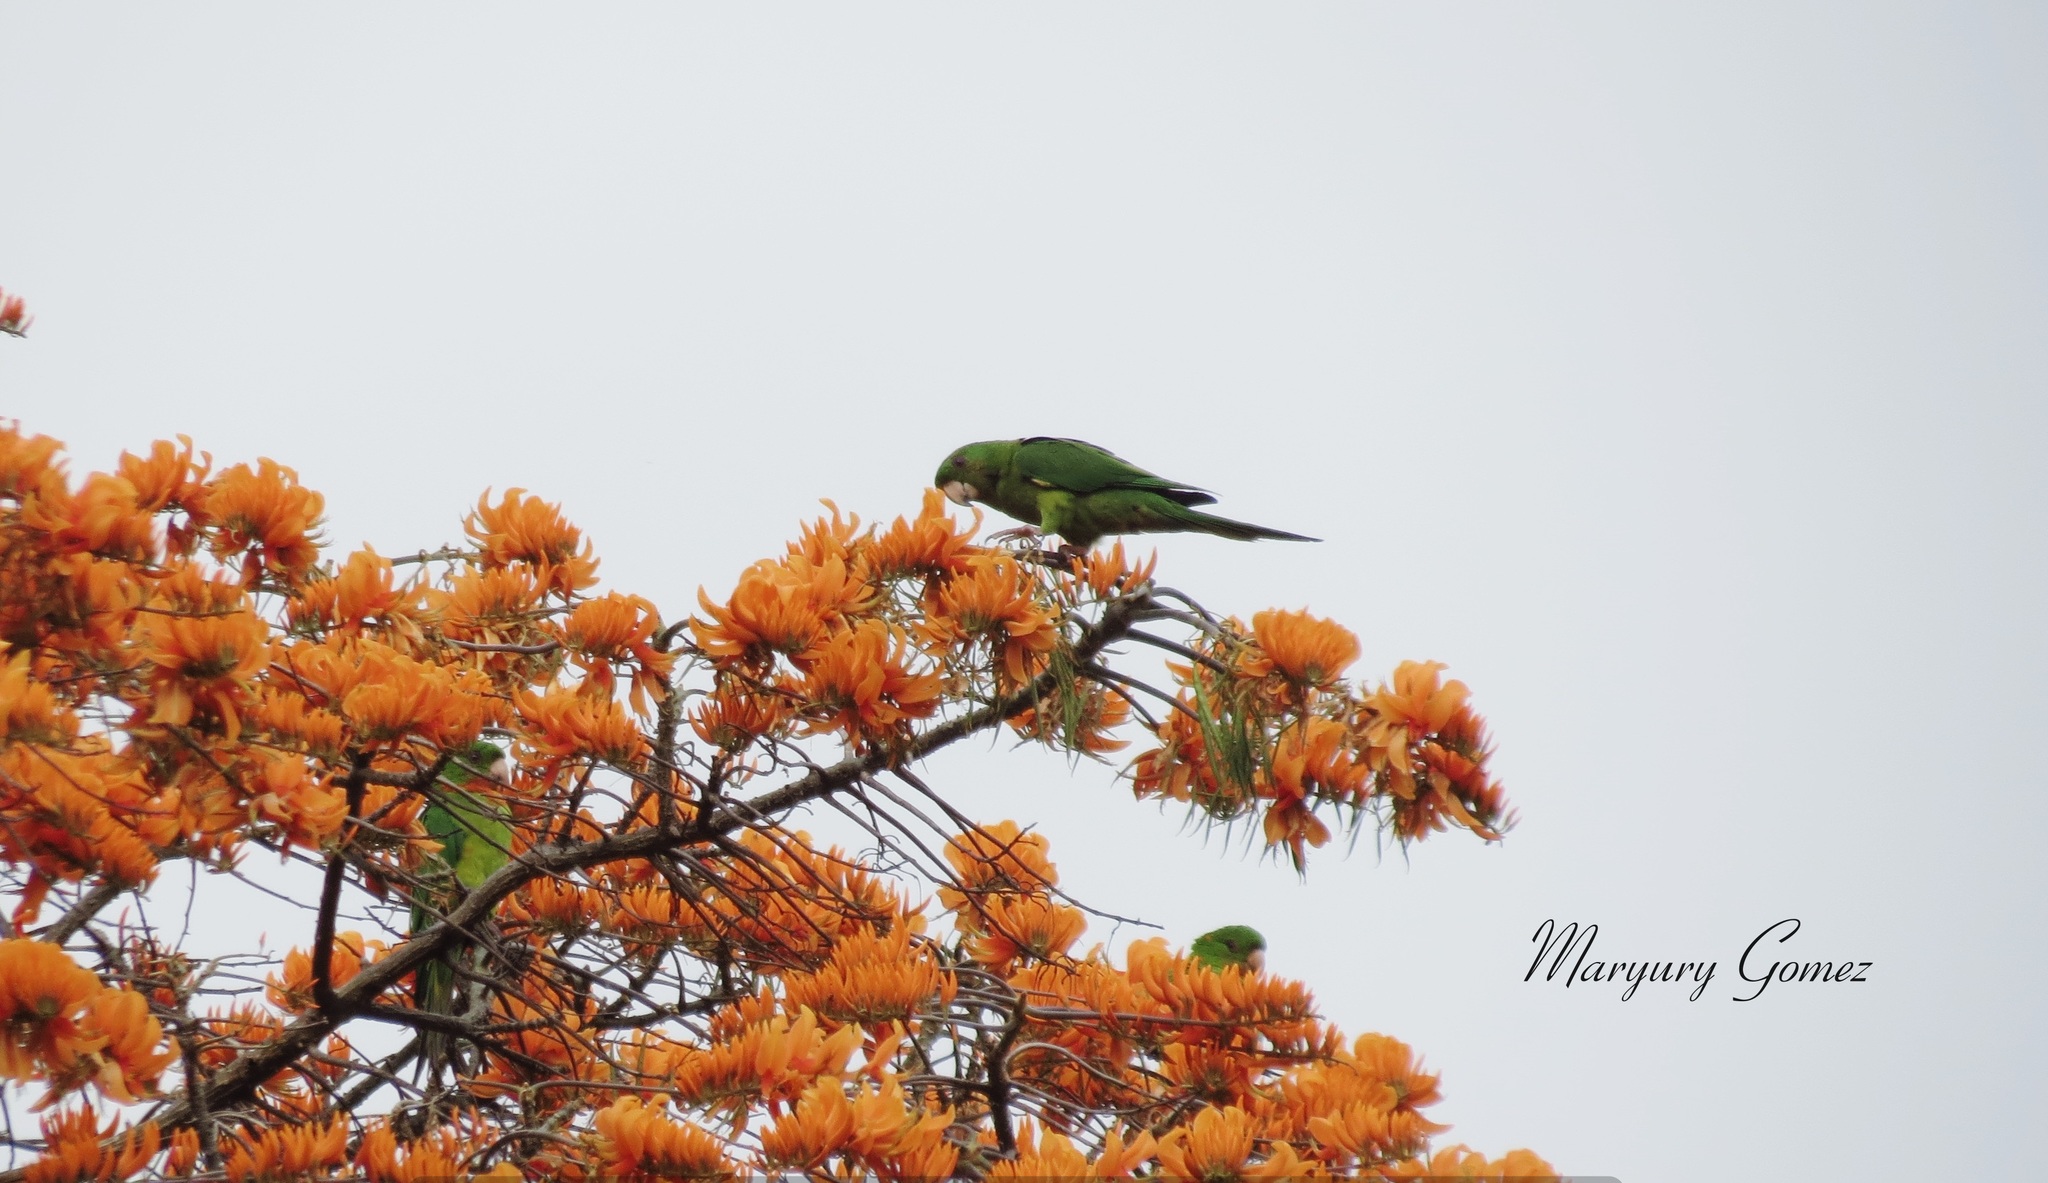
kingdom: Animalia
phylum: Chordata
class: Aves
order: Psittaciformes
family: Psittacidae
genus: Aratinga
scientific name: Aratinga holochlora
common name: Green parakeet
